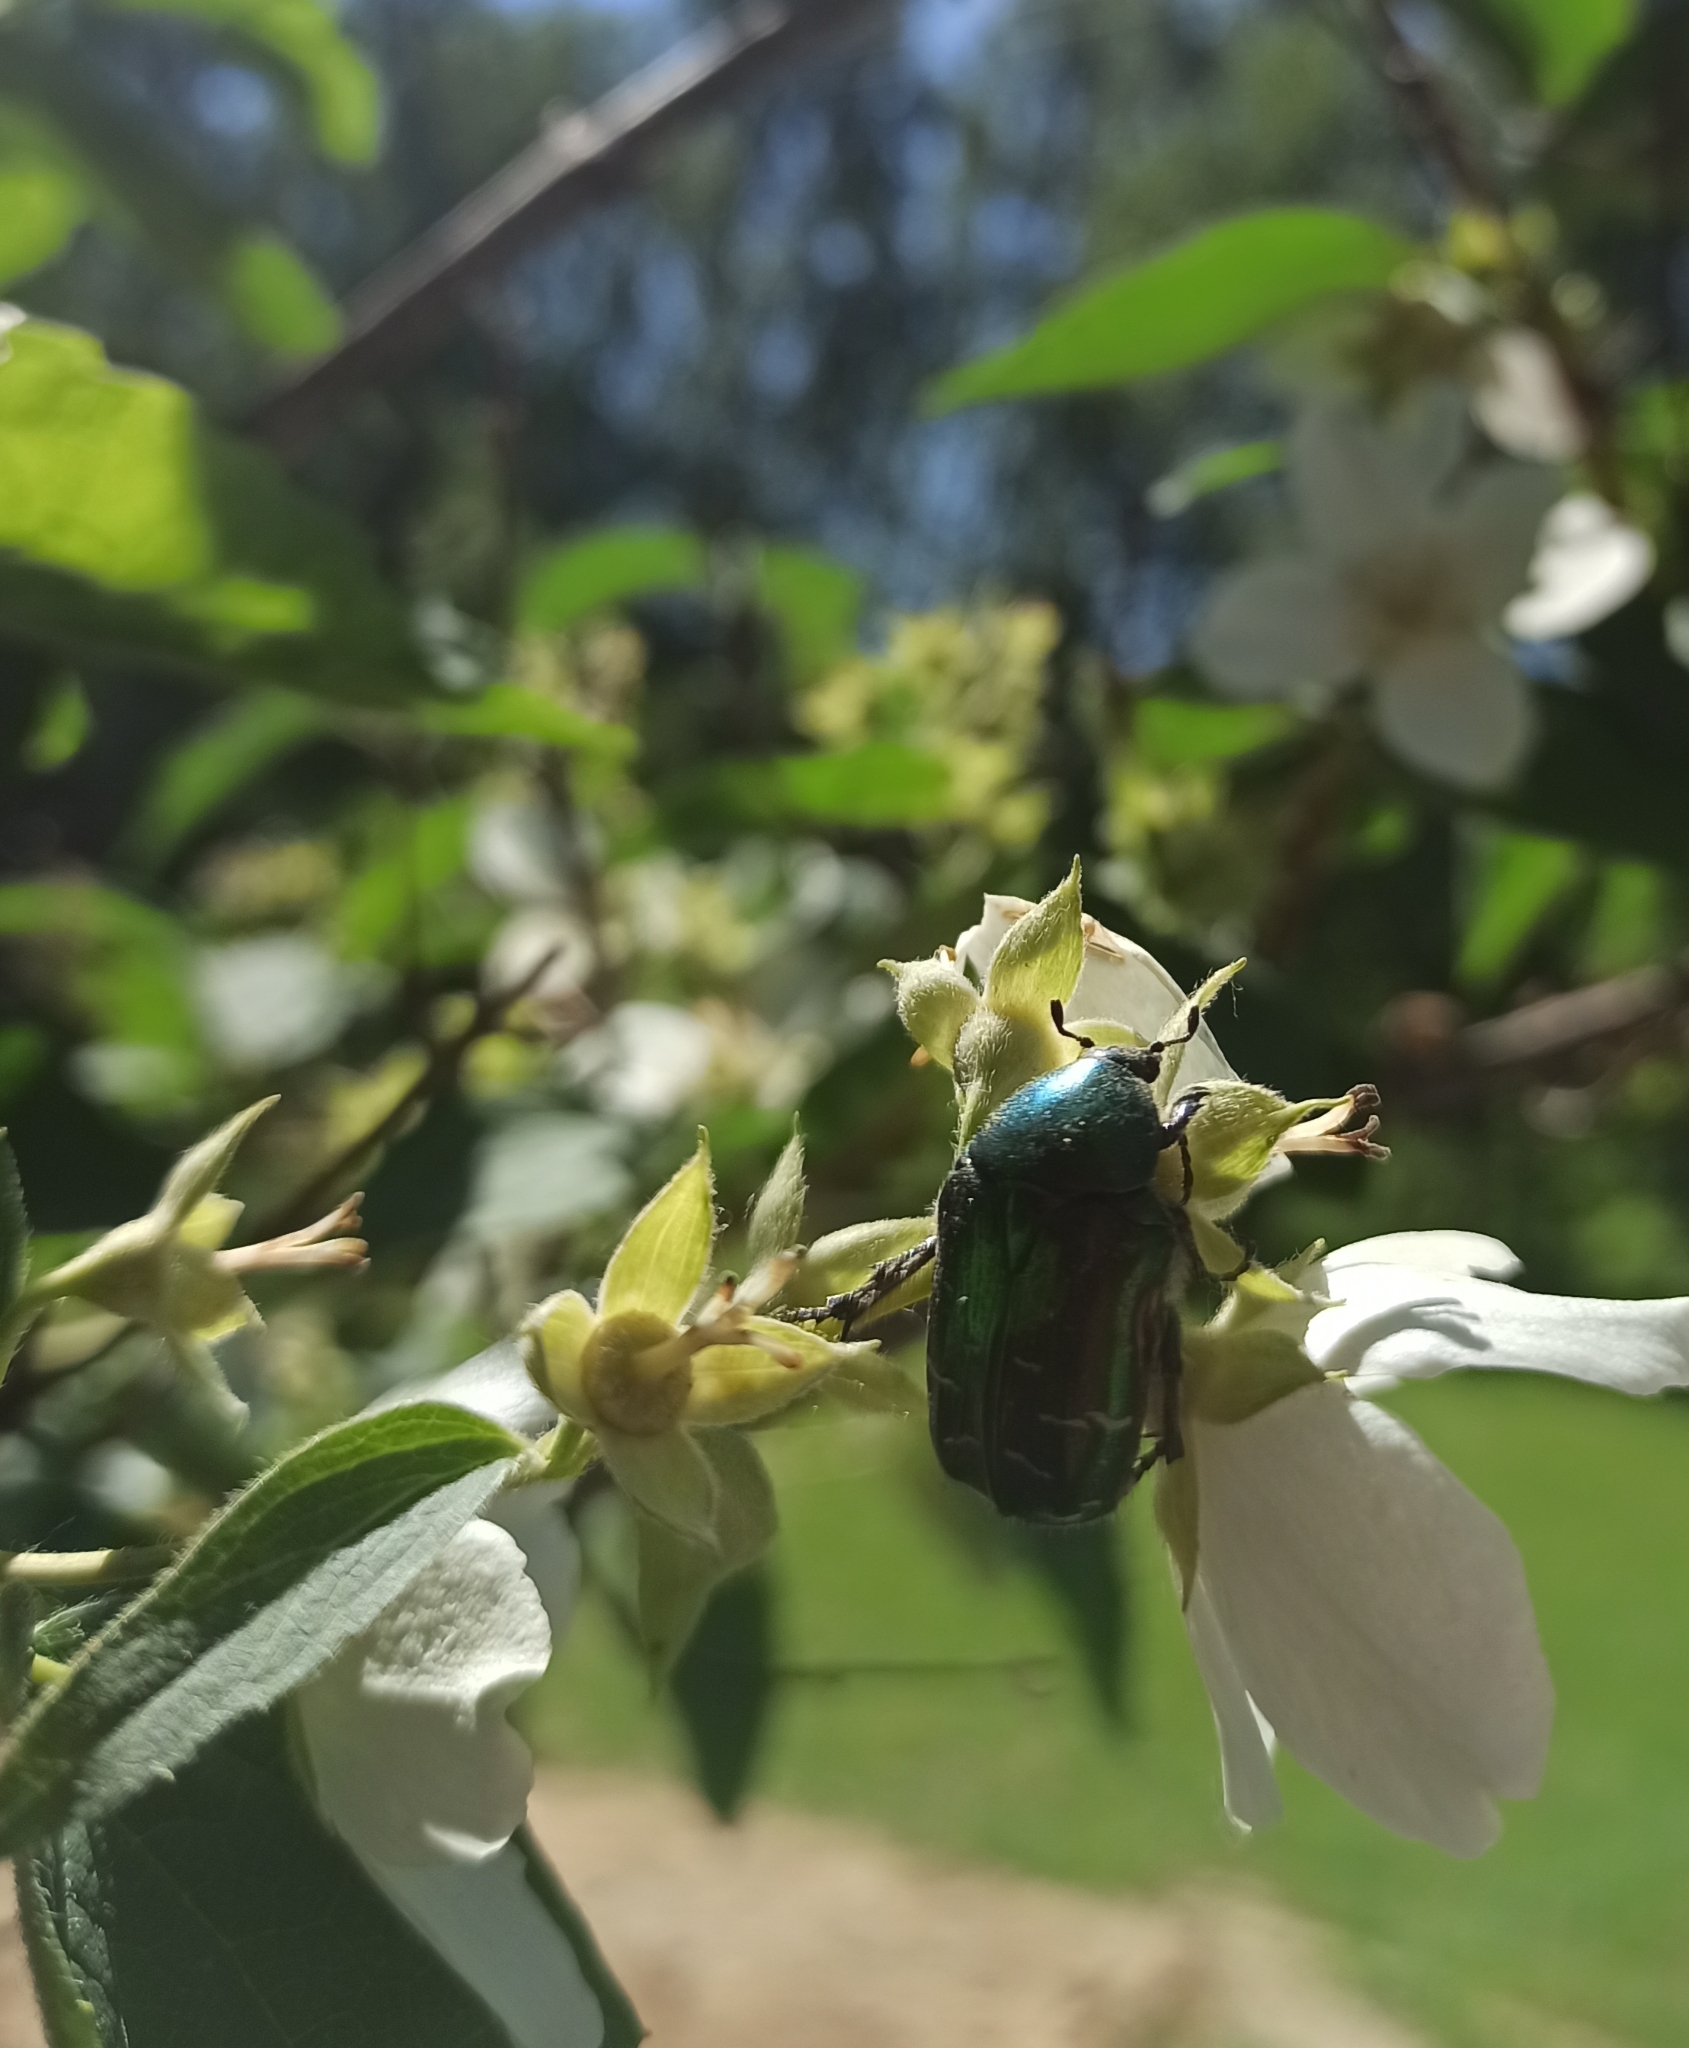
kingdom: Animalia
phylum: Arthropoda
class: Insecta
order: Coleoptera
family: Scarabaeidae
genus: Cetonia
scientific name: Cetonia aurata
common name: Rose chafer
